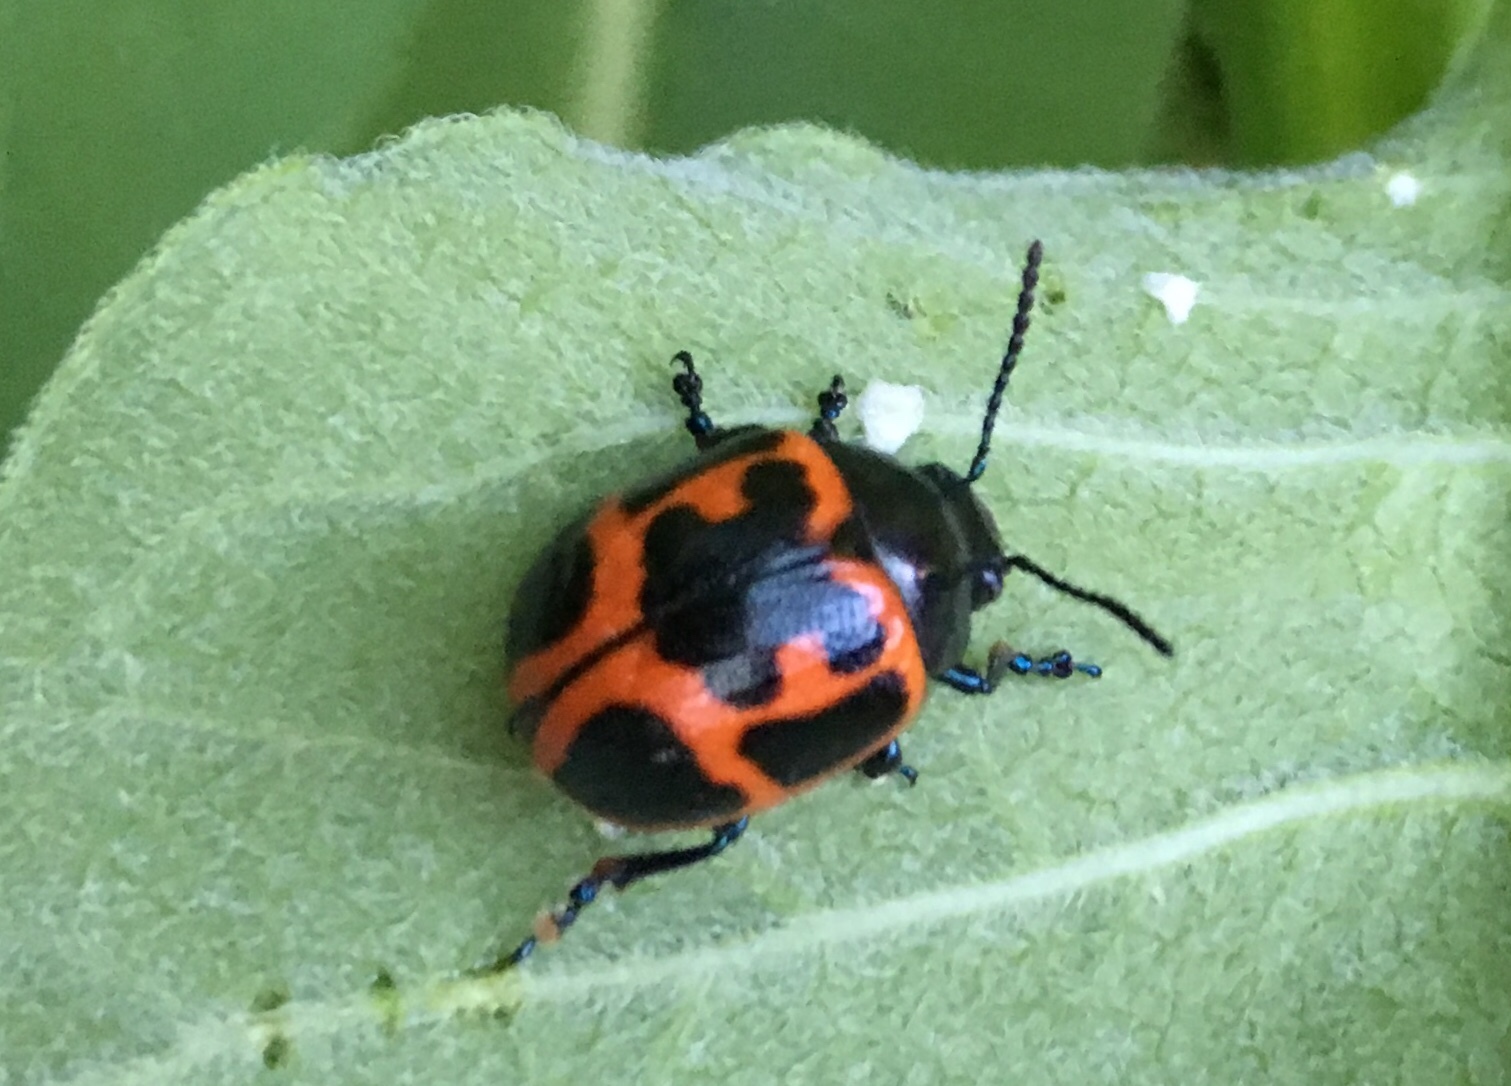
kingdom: Animalia
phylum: Arthropoda
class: Insecta
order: Coleoptera
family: Chrysomelidae
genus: Labidomera
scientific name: Labidomera clivicollis
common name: Swamp milkweed leaf beetle
